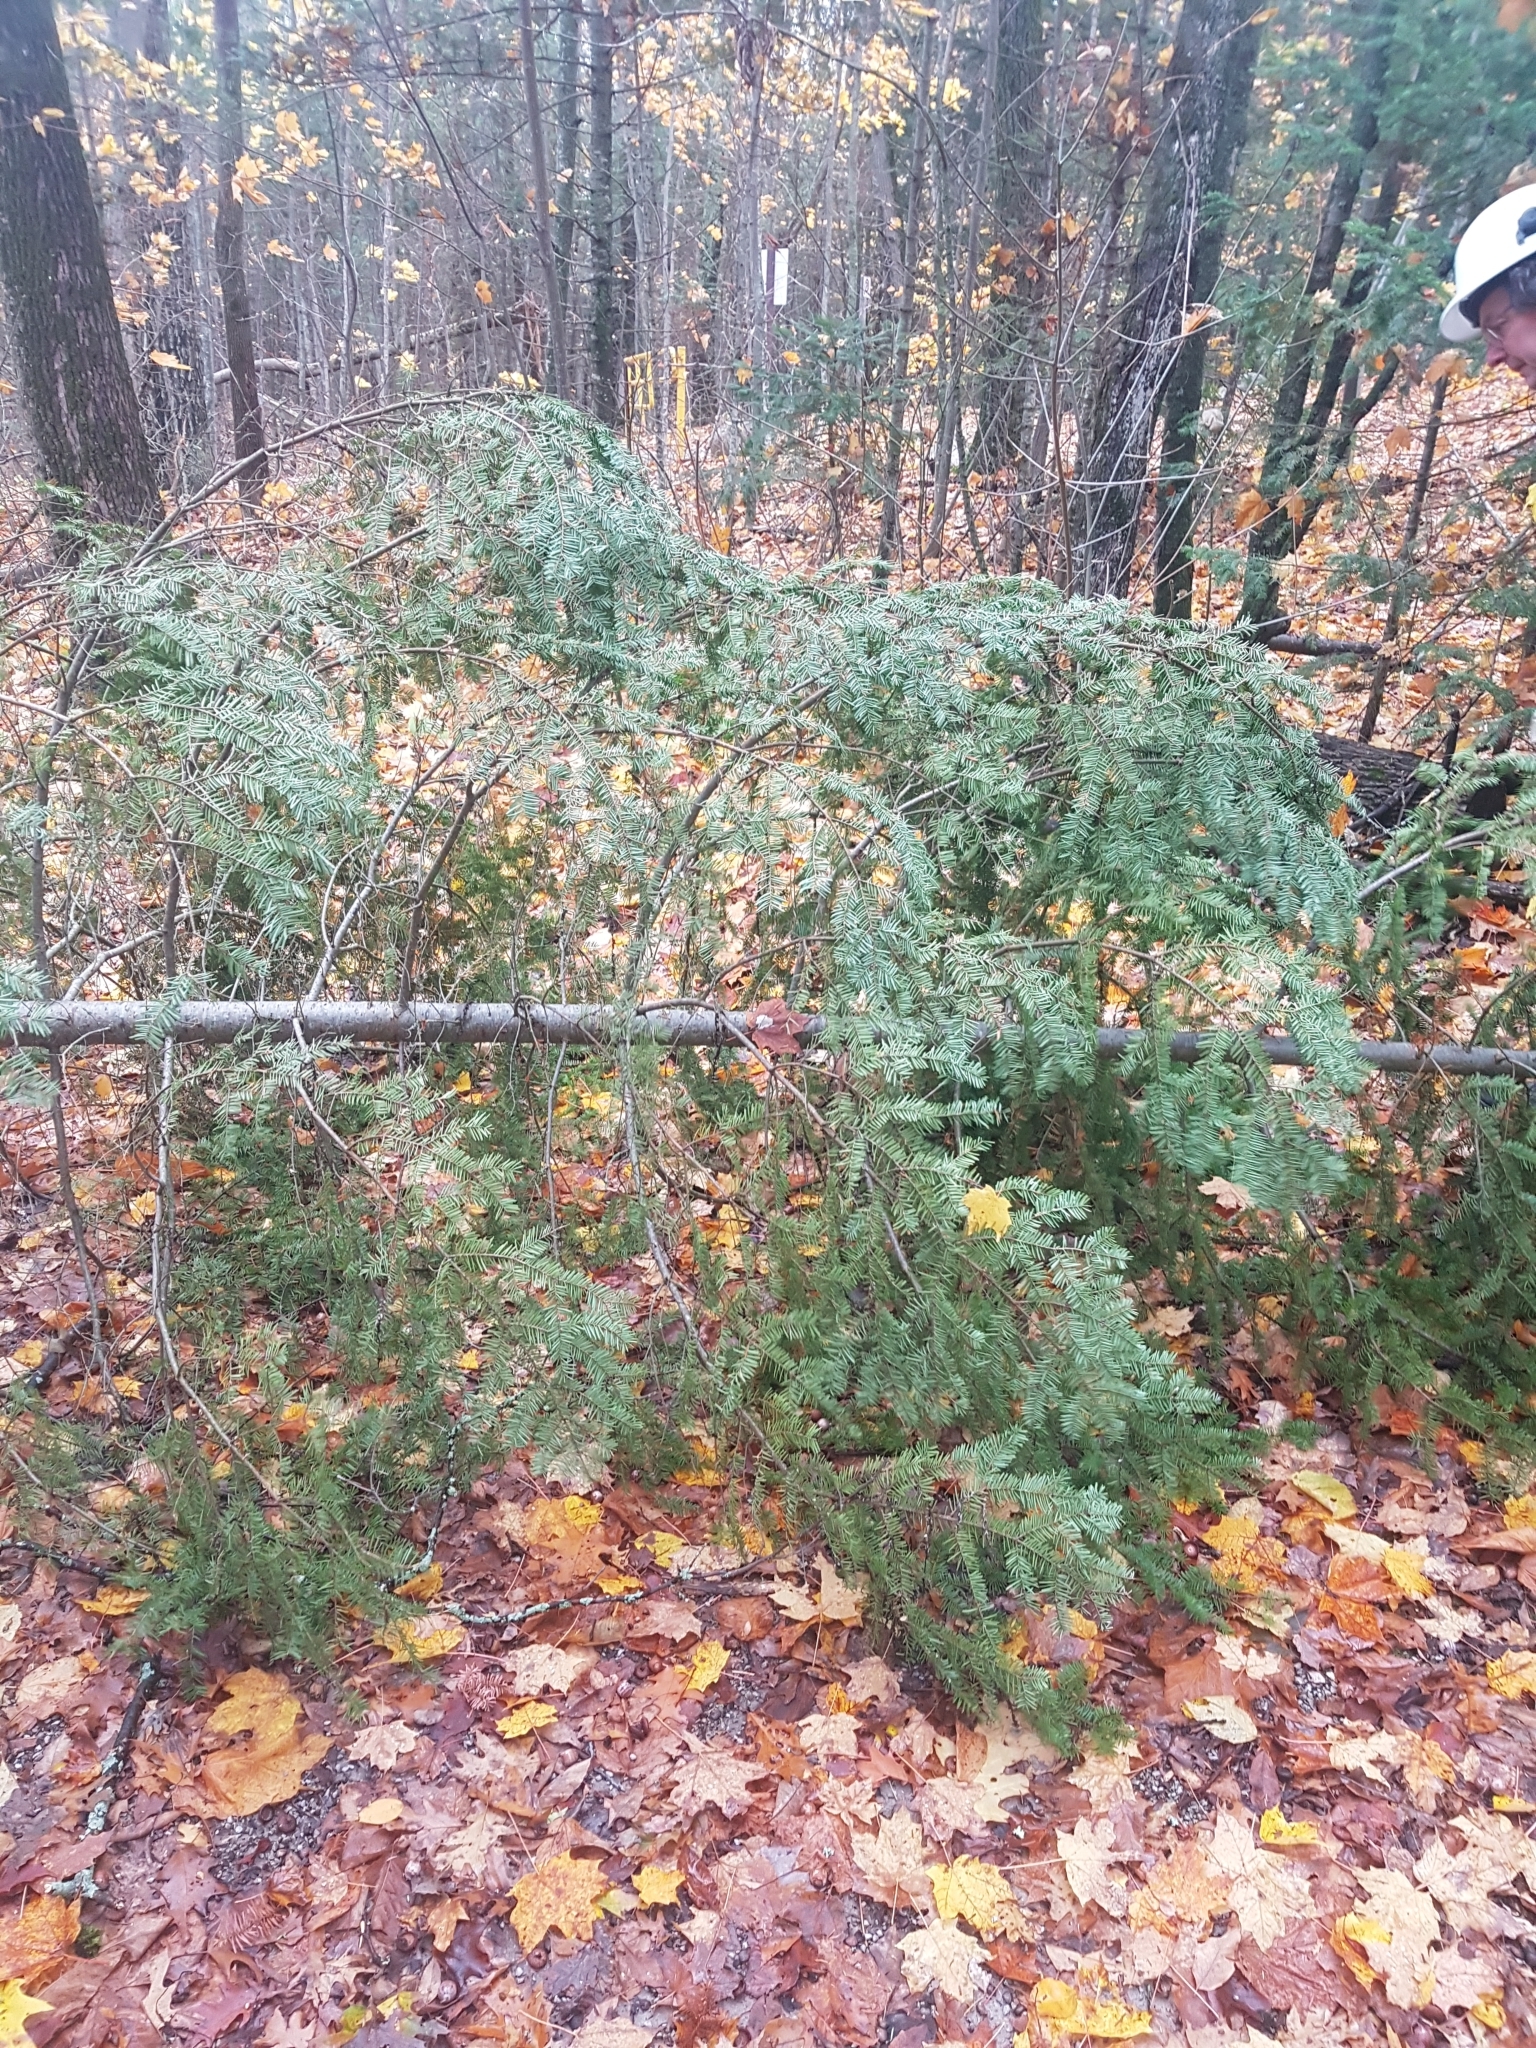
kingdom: Plantae
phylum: Tracheophyta
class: Pinopsida
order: Pinales
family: Pinaceae
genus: Abies
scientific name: Abies balsamea
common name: Balsam fir
